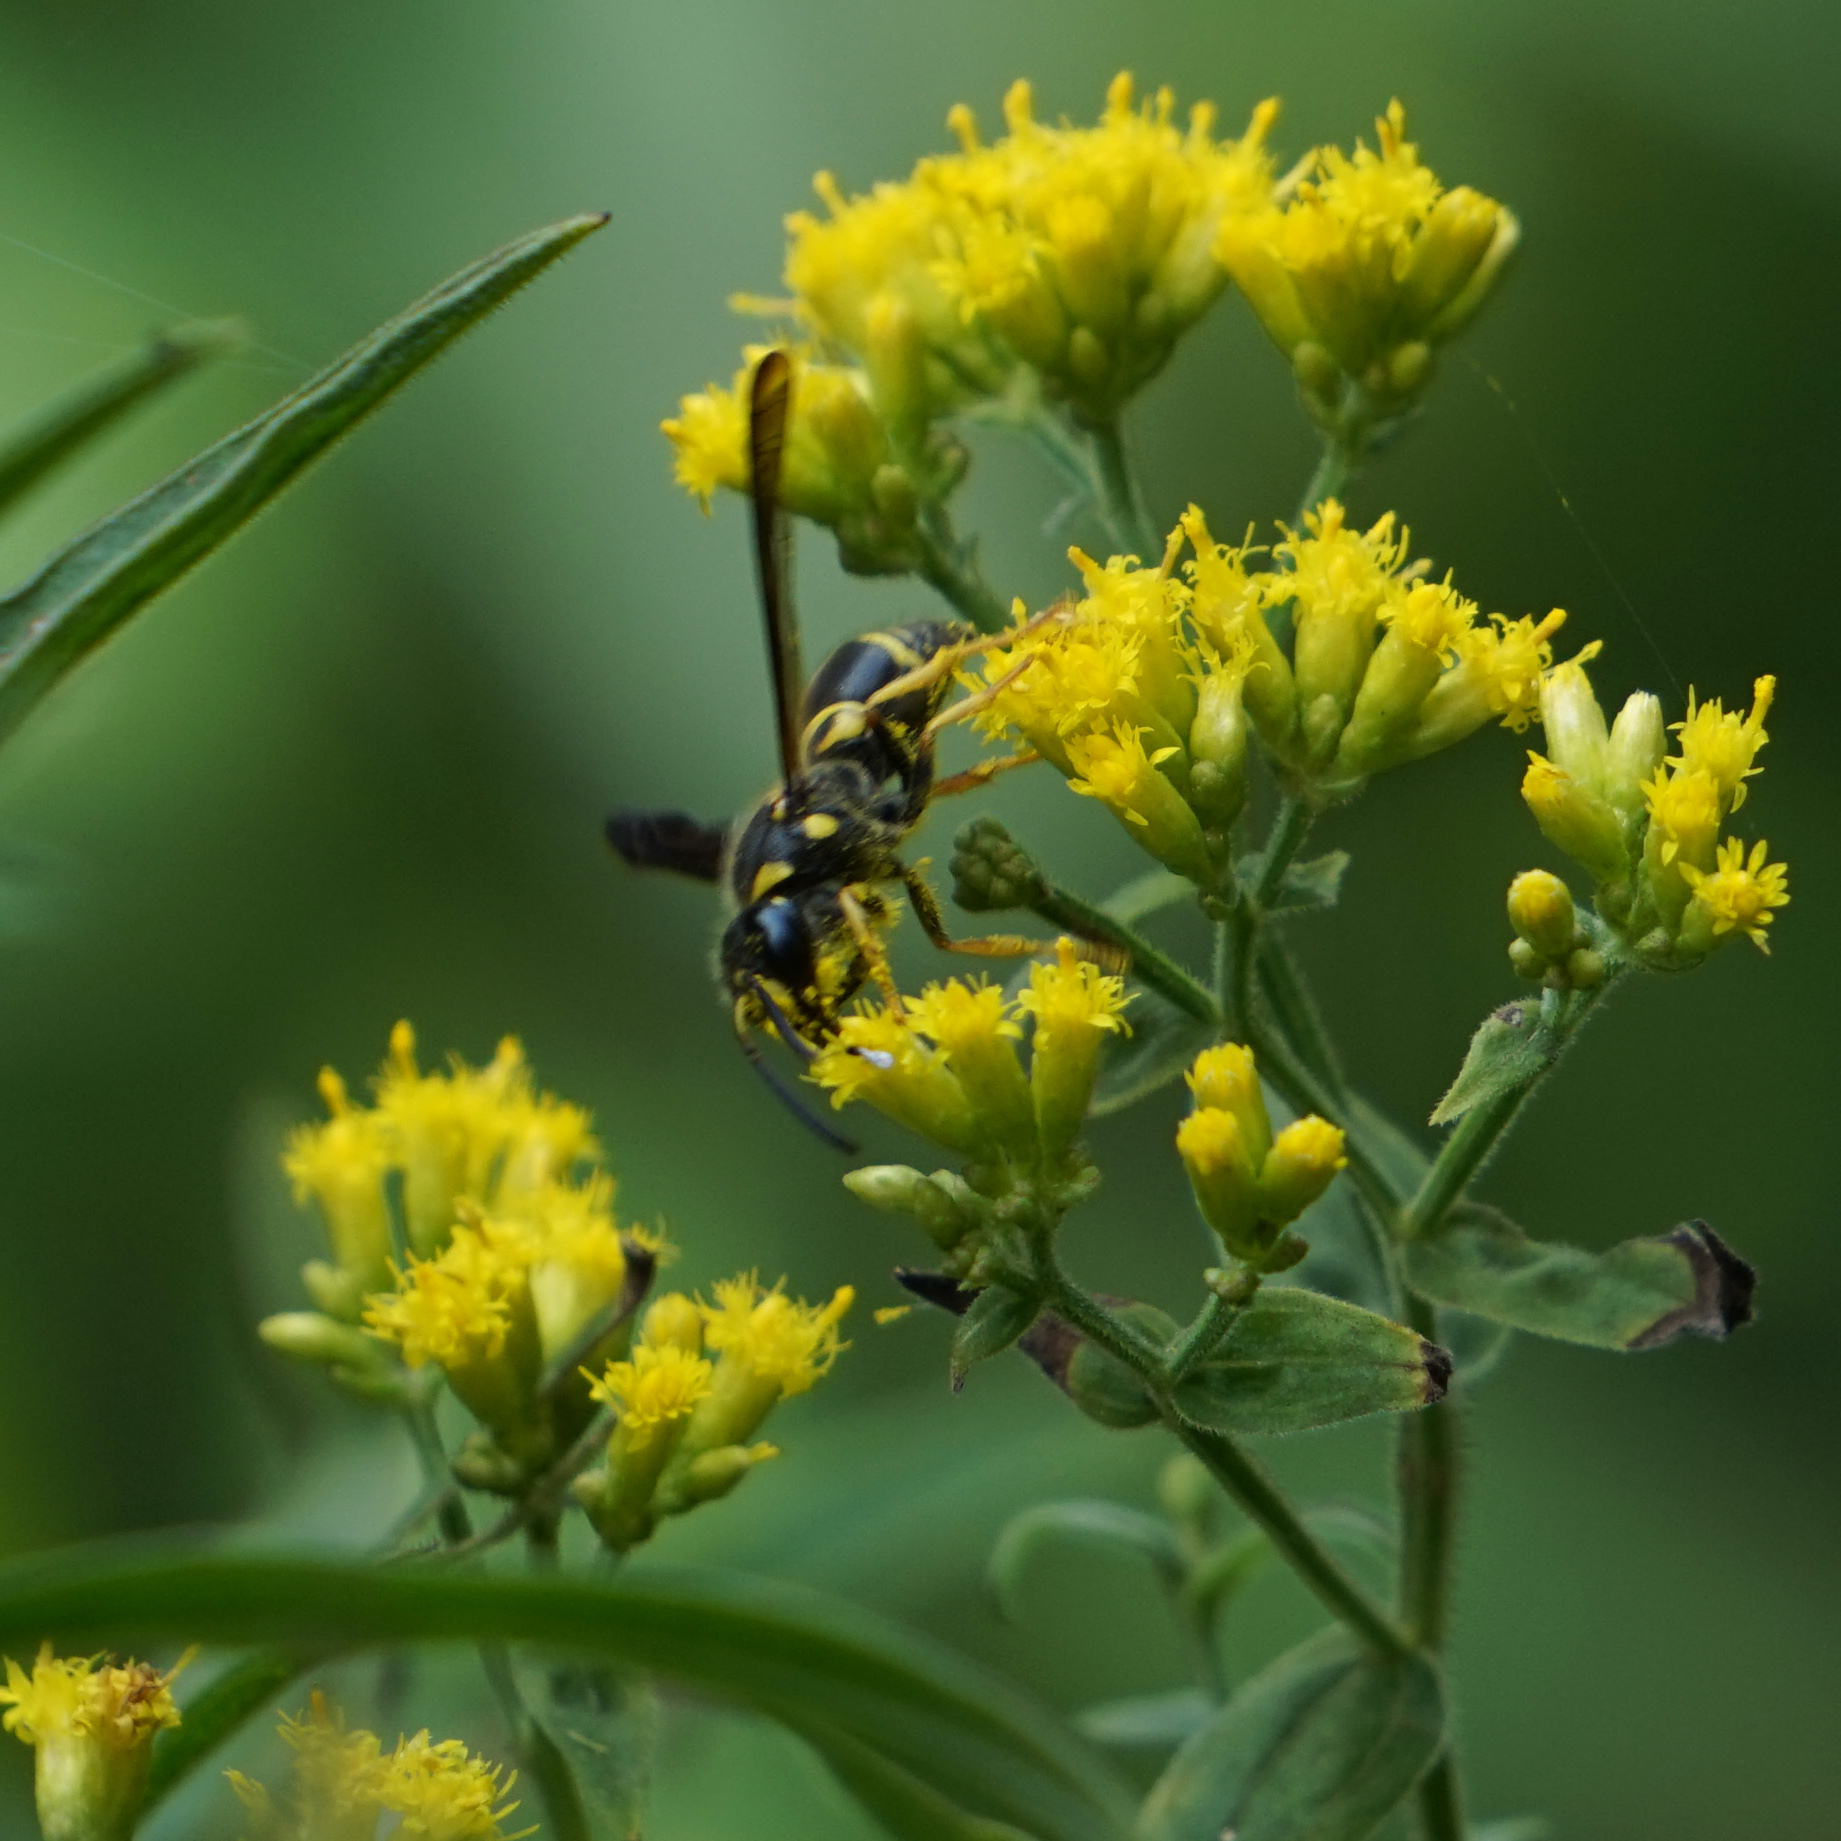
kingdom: Animalia
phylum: Arthropoda
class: Insecta
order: Hymenoptera
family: Vespidae
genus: Ancistrocerus
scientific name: Ancistrocerus campestris
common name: Smiling mason wasp
